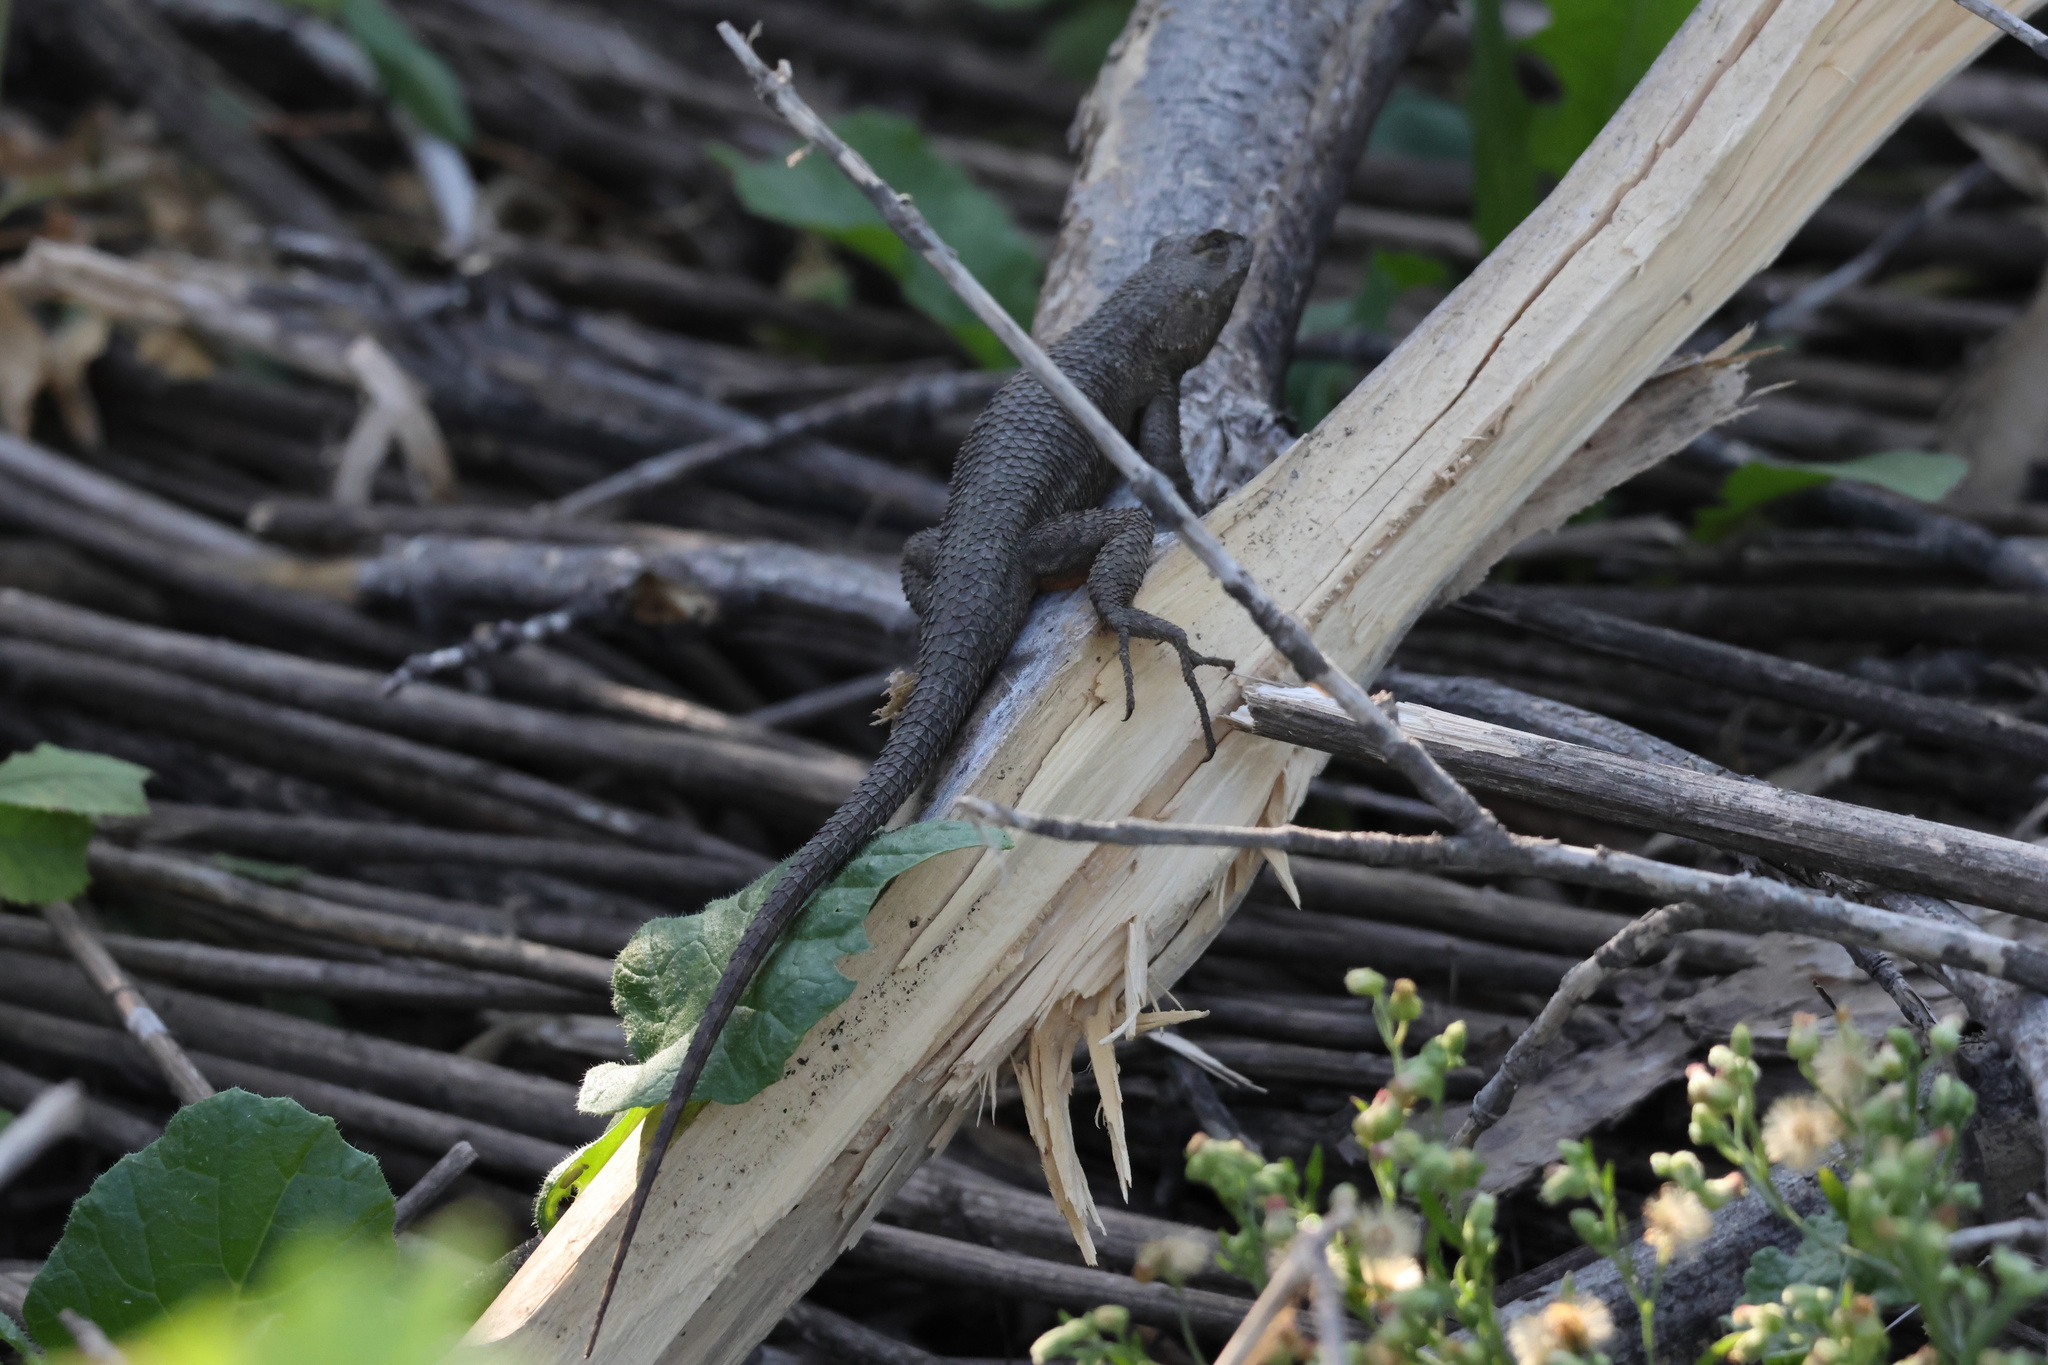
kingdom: Animalia
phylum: Chordata
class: Squamata
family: Phrynosomatidae
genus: Sceloporus
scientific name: Sceloporus occidentalis
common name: Western fence lizard
